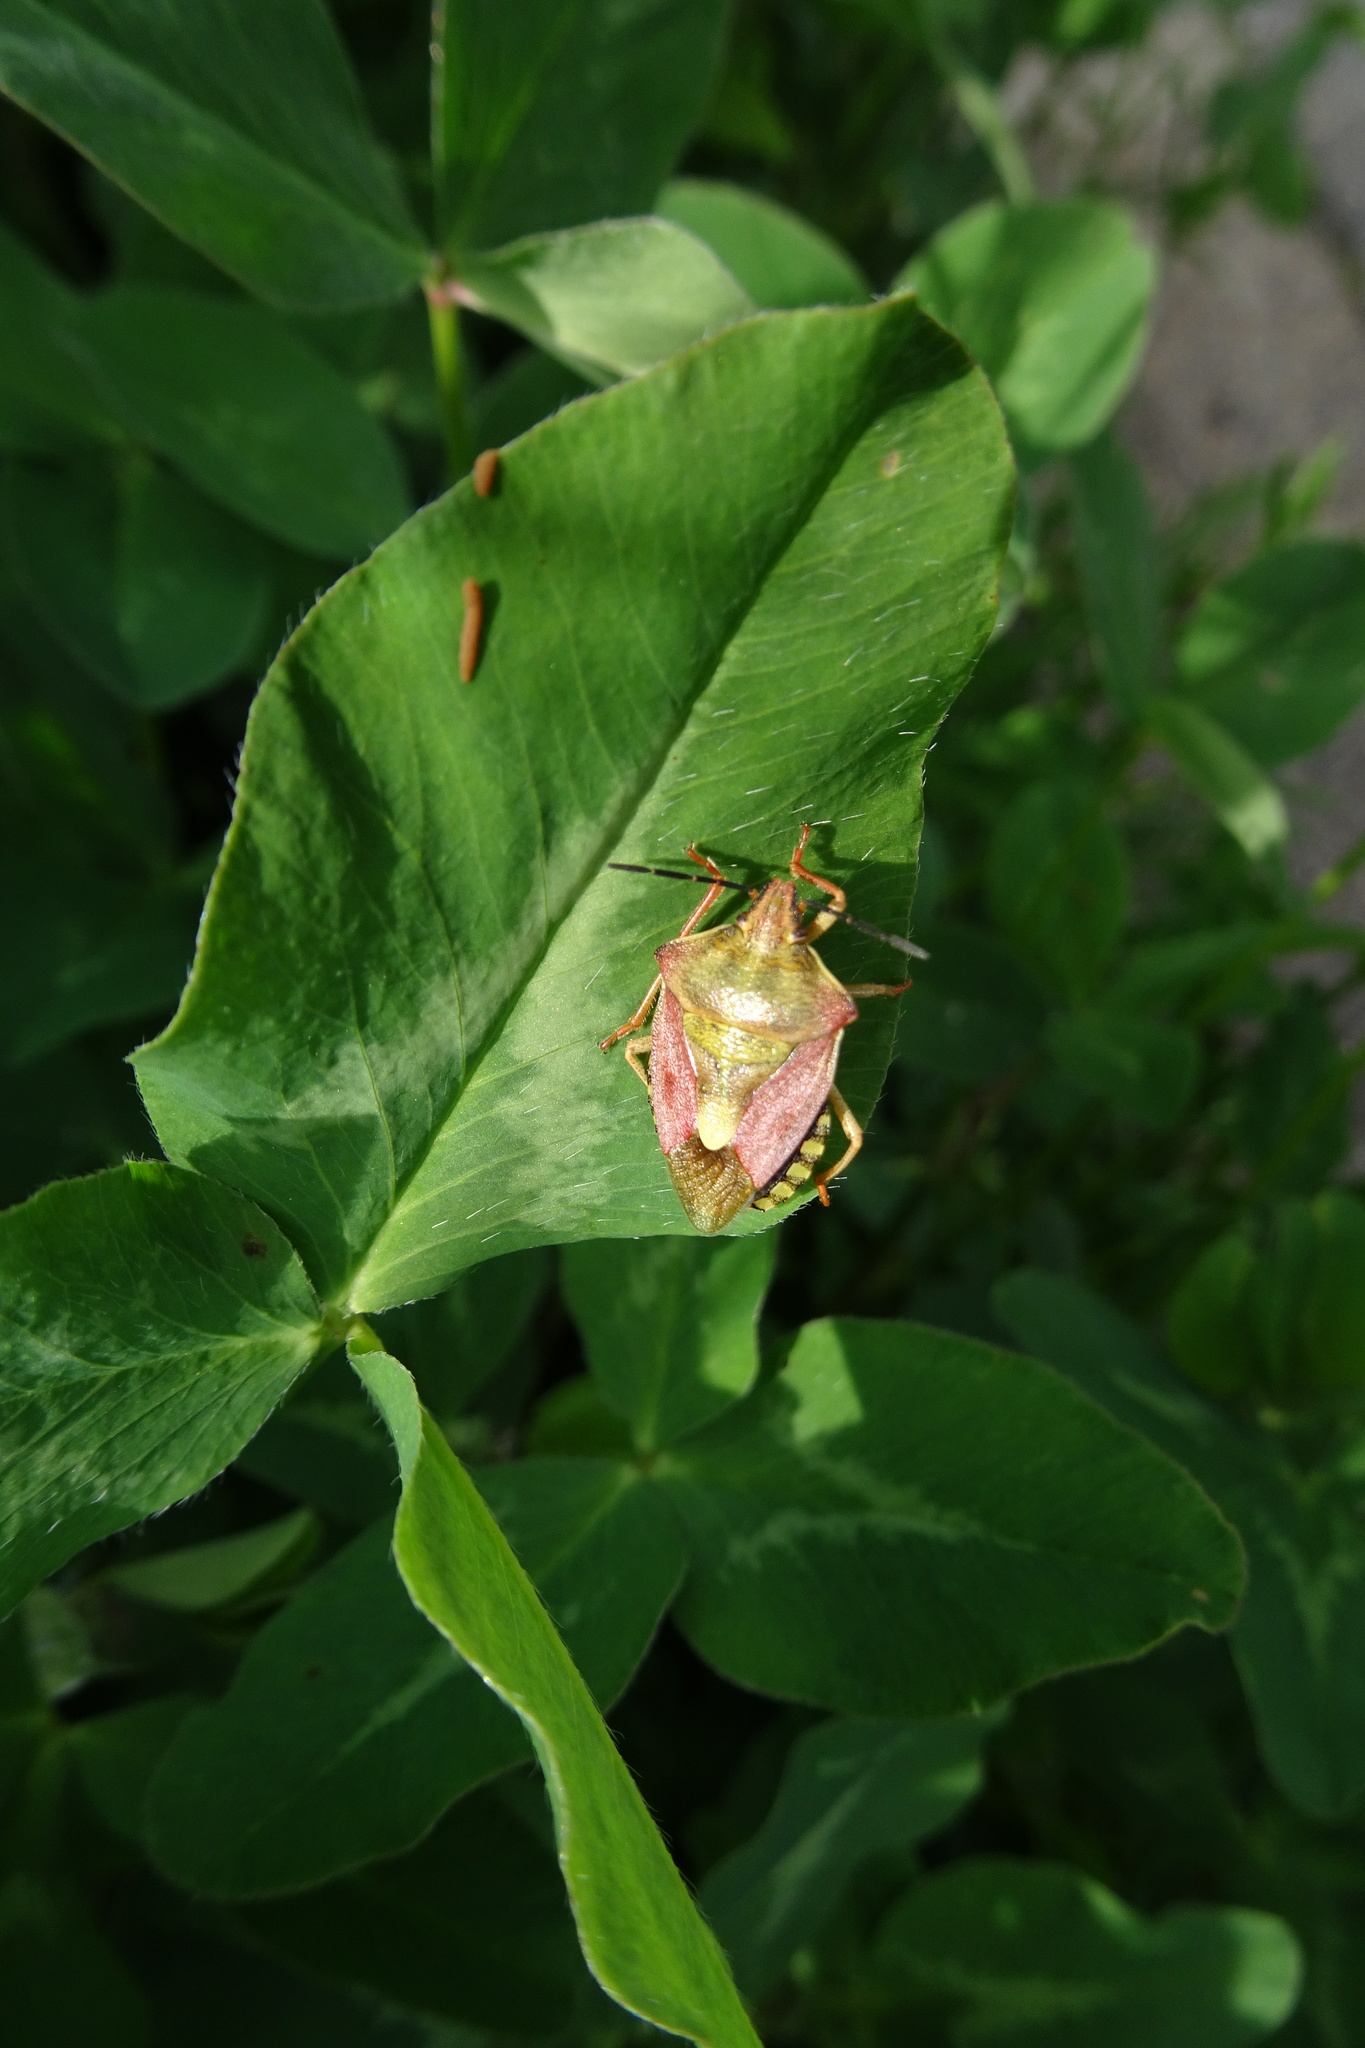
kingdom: Animalia
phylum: Arthropoda
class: Insecta
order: Hemiptera
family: Pentatomidae
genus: Carpocoris
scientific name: Carpocoris purpureipennis
